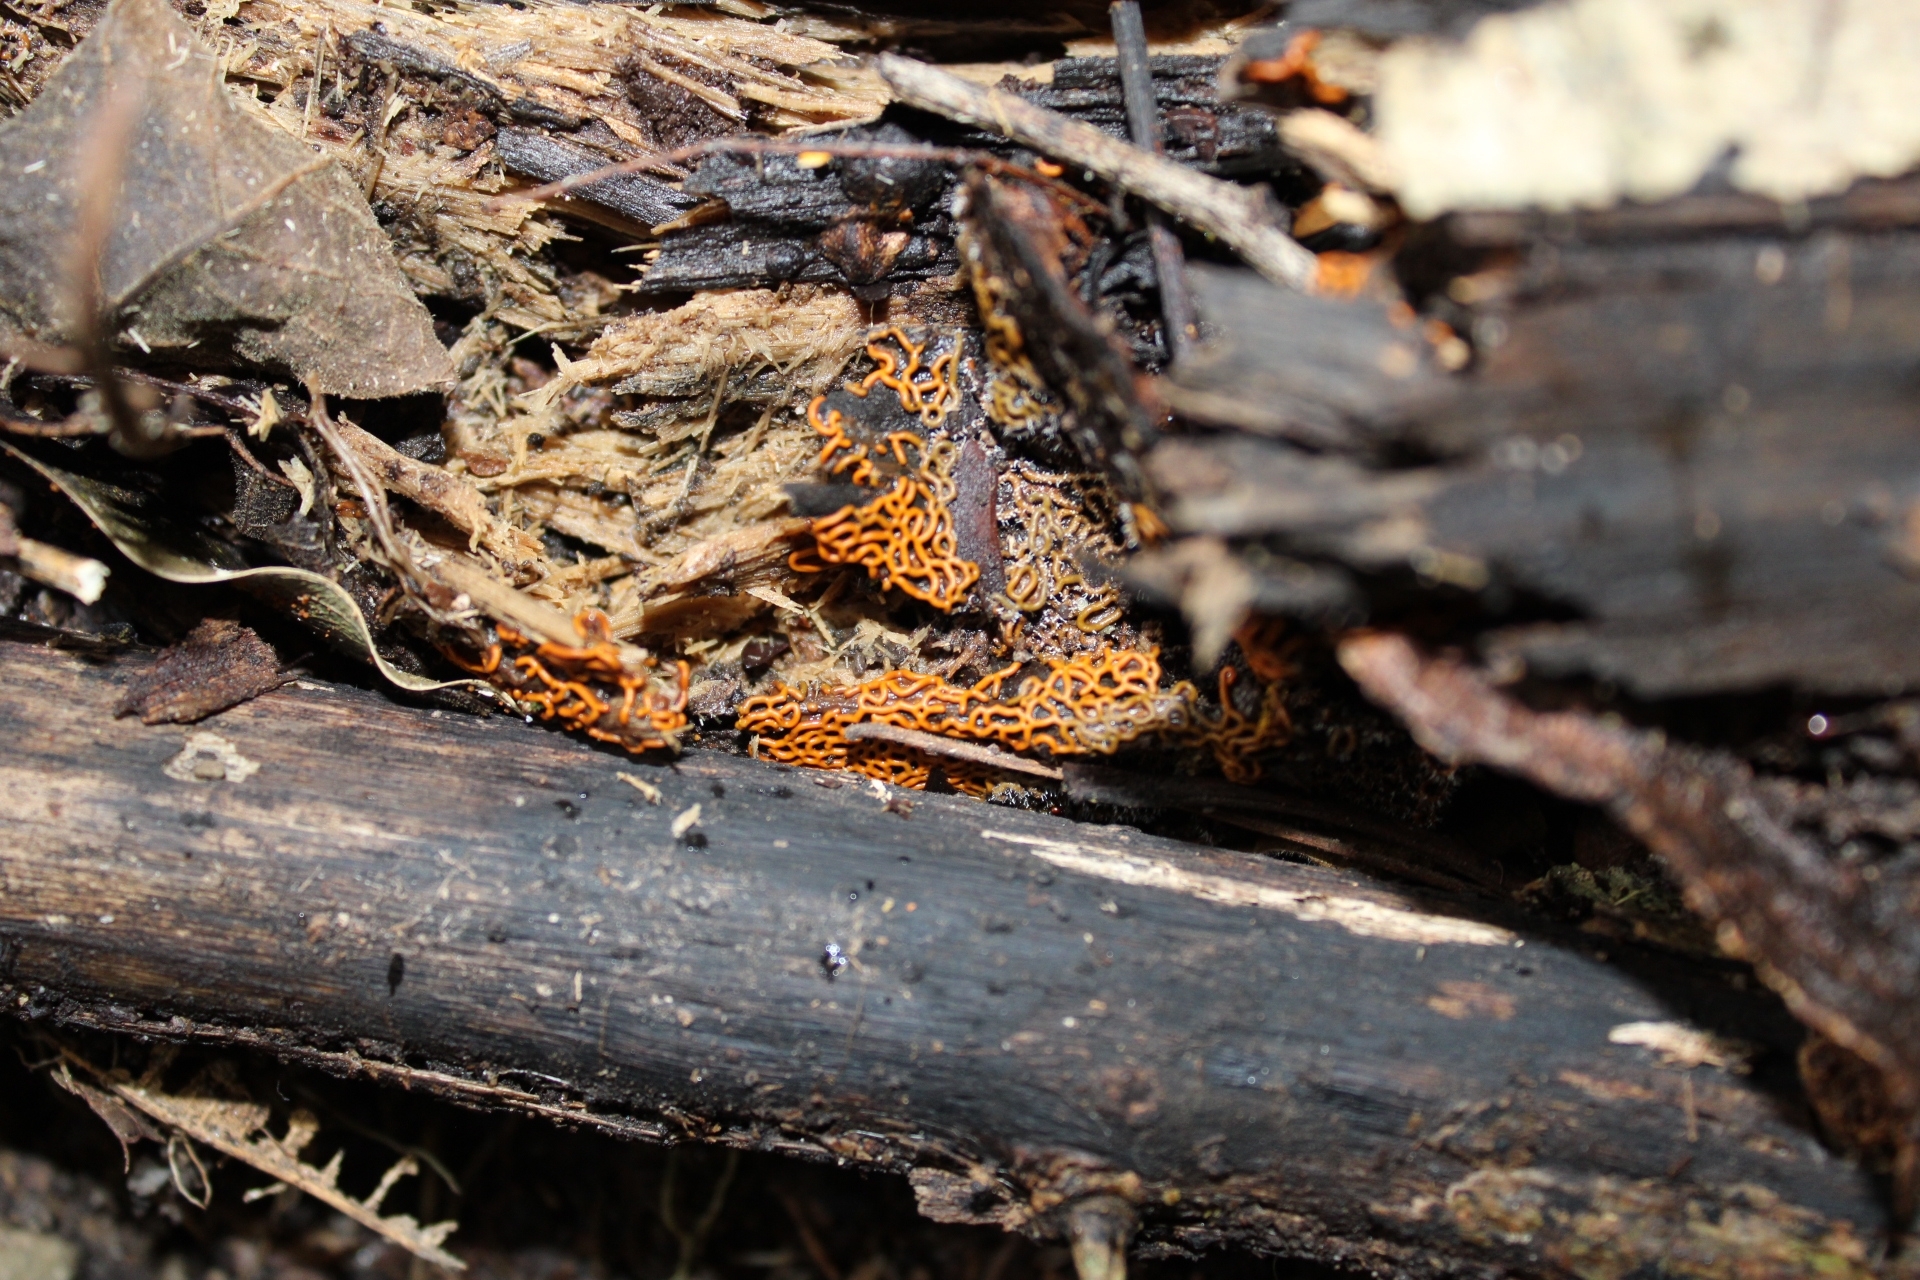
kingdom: Protozoa
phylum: Mycetozoa
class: Myxomycetes
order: Trichiales
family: Arcyriaceae
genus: Hemitrichia
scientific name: Hemitrichia serpula
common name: Pretzel slime mold
